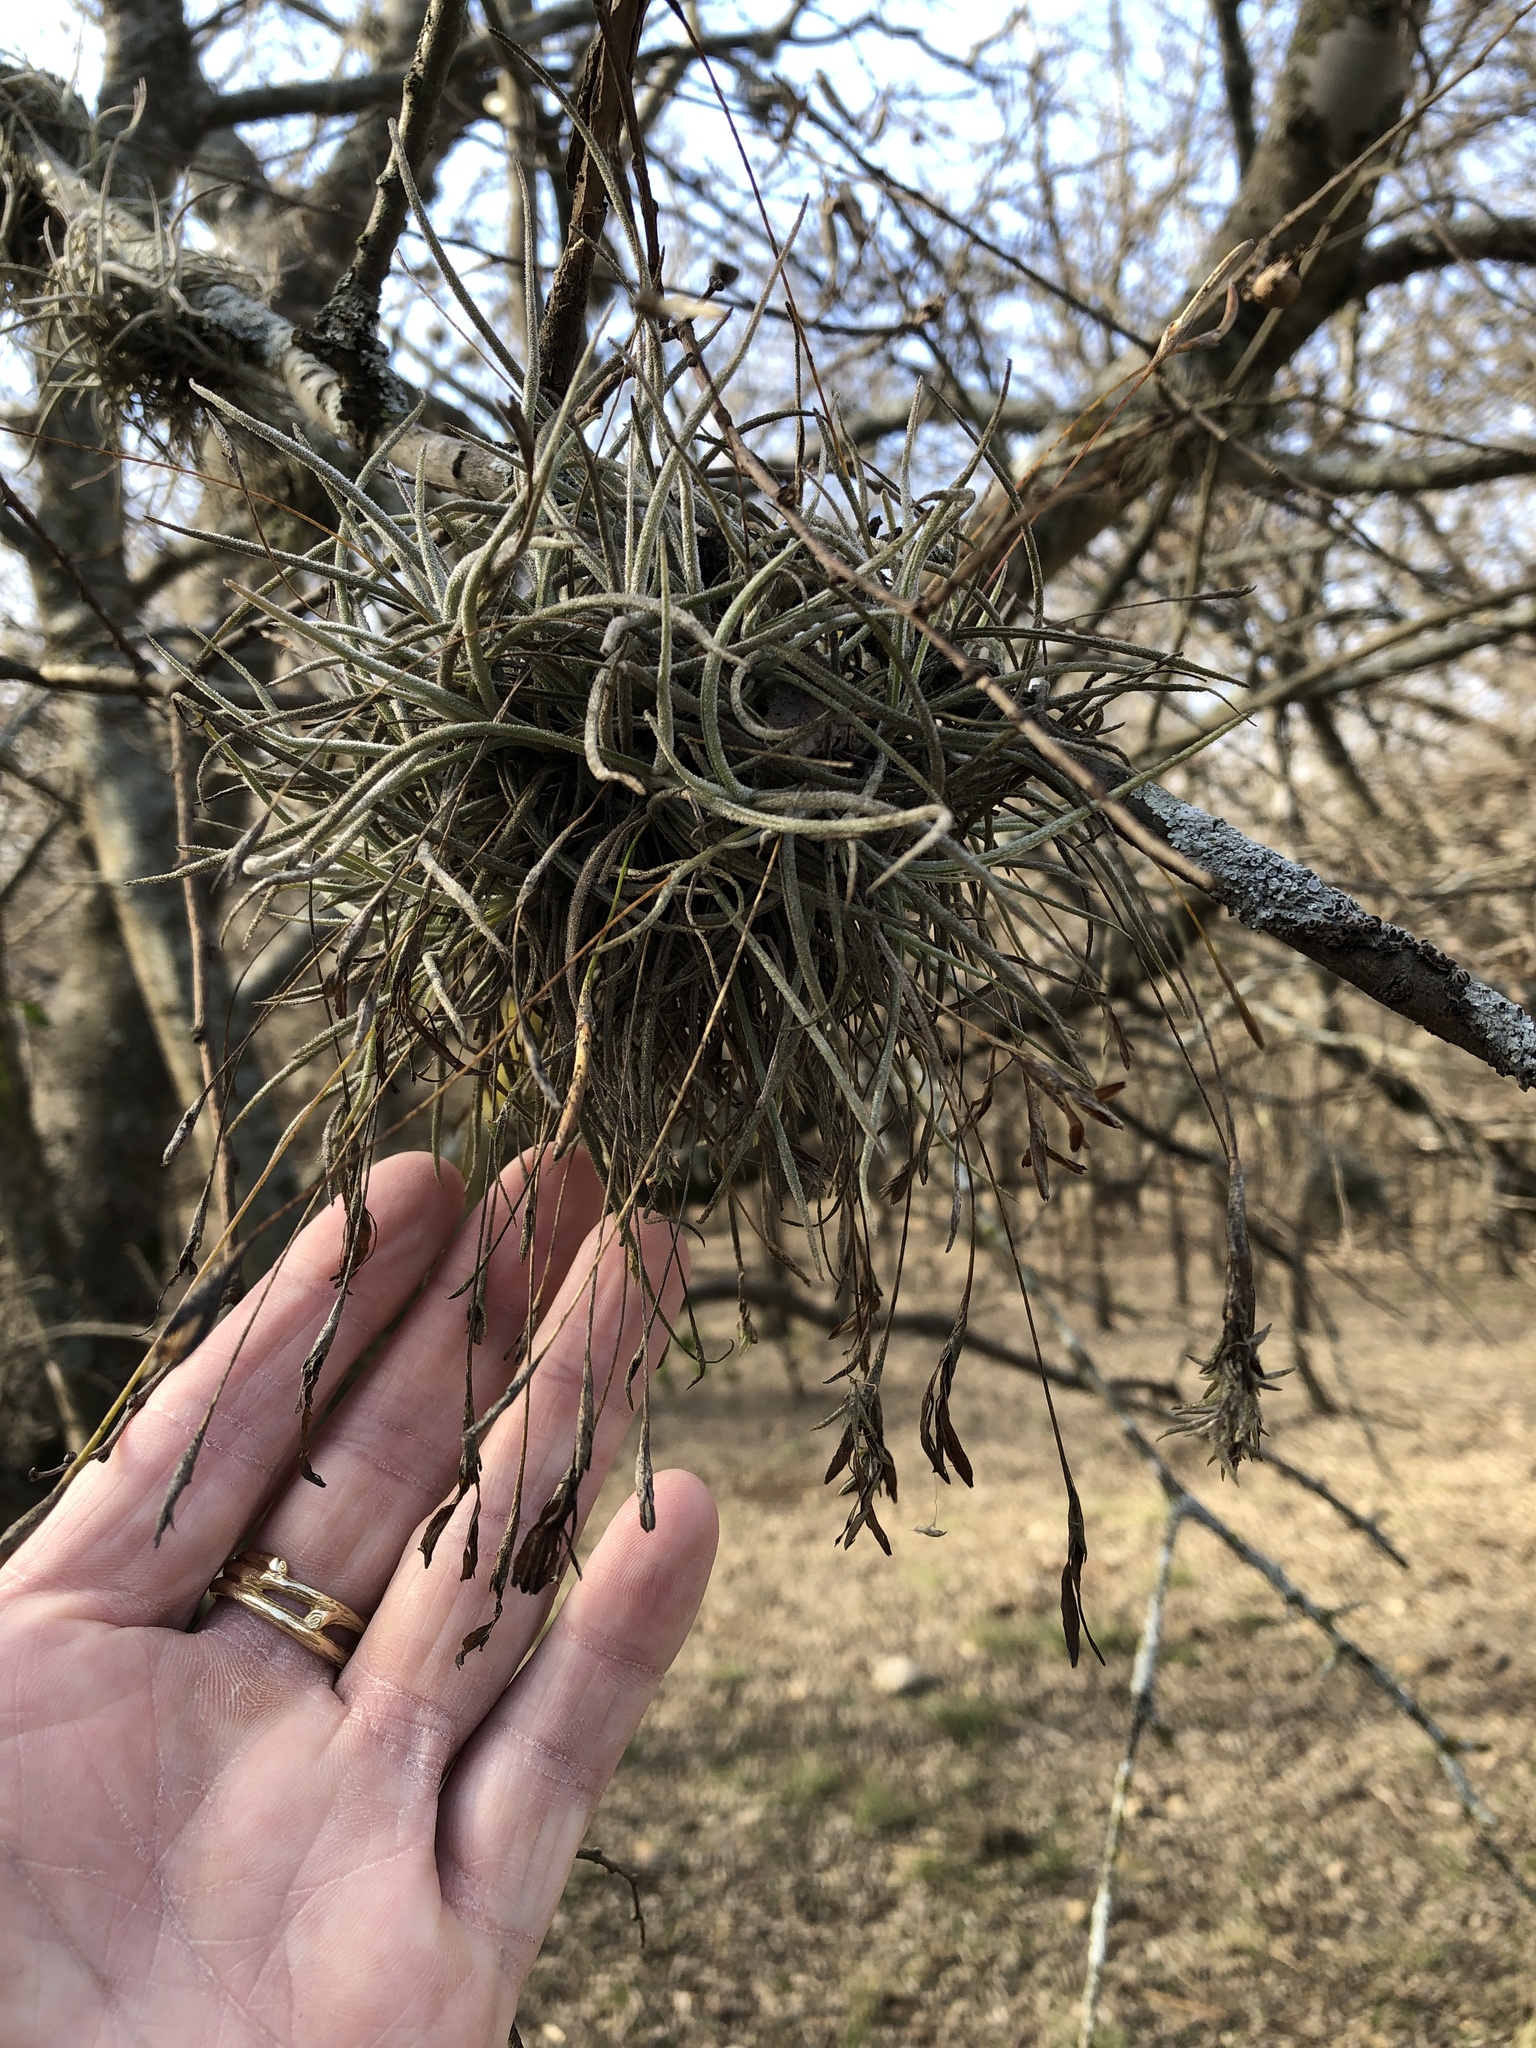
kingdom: Plantae
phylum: Tracheophyta
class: Liliopsida
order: Poales
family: Bromeliaceae
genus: Tillandsia
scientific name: Tillandsia recurvata
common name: Small ballmoss
